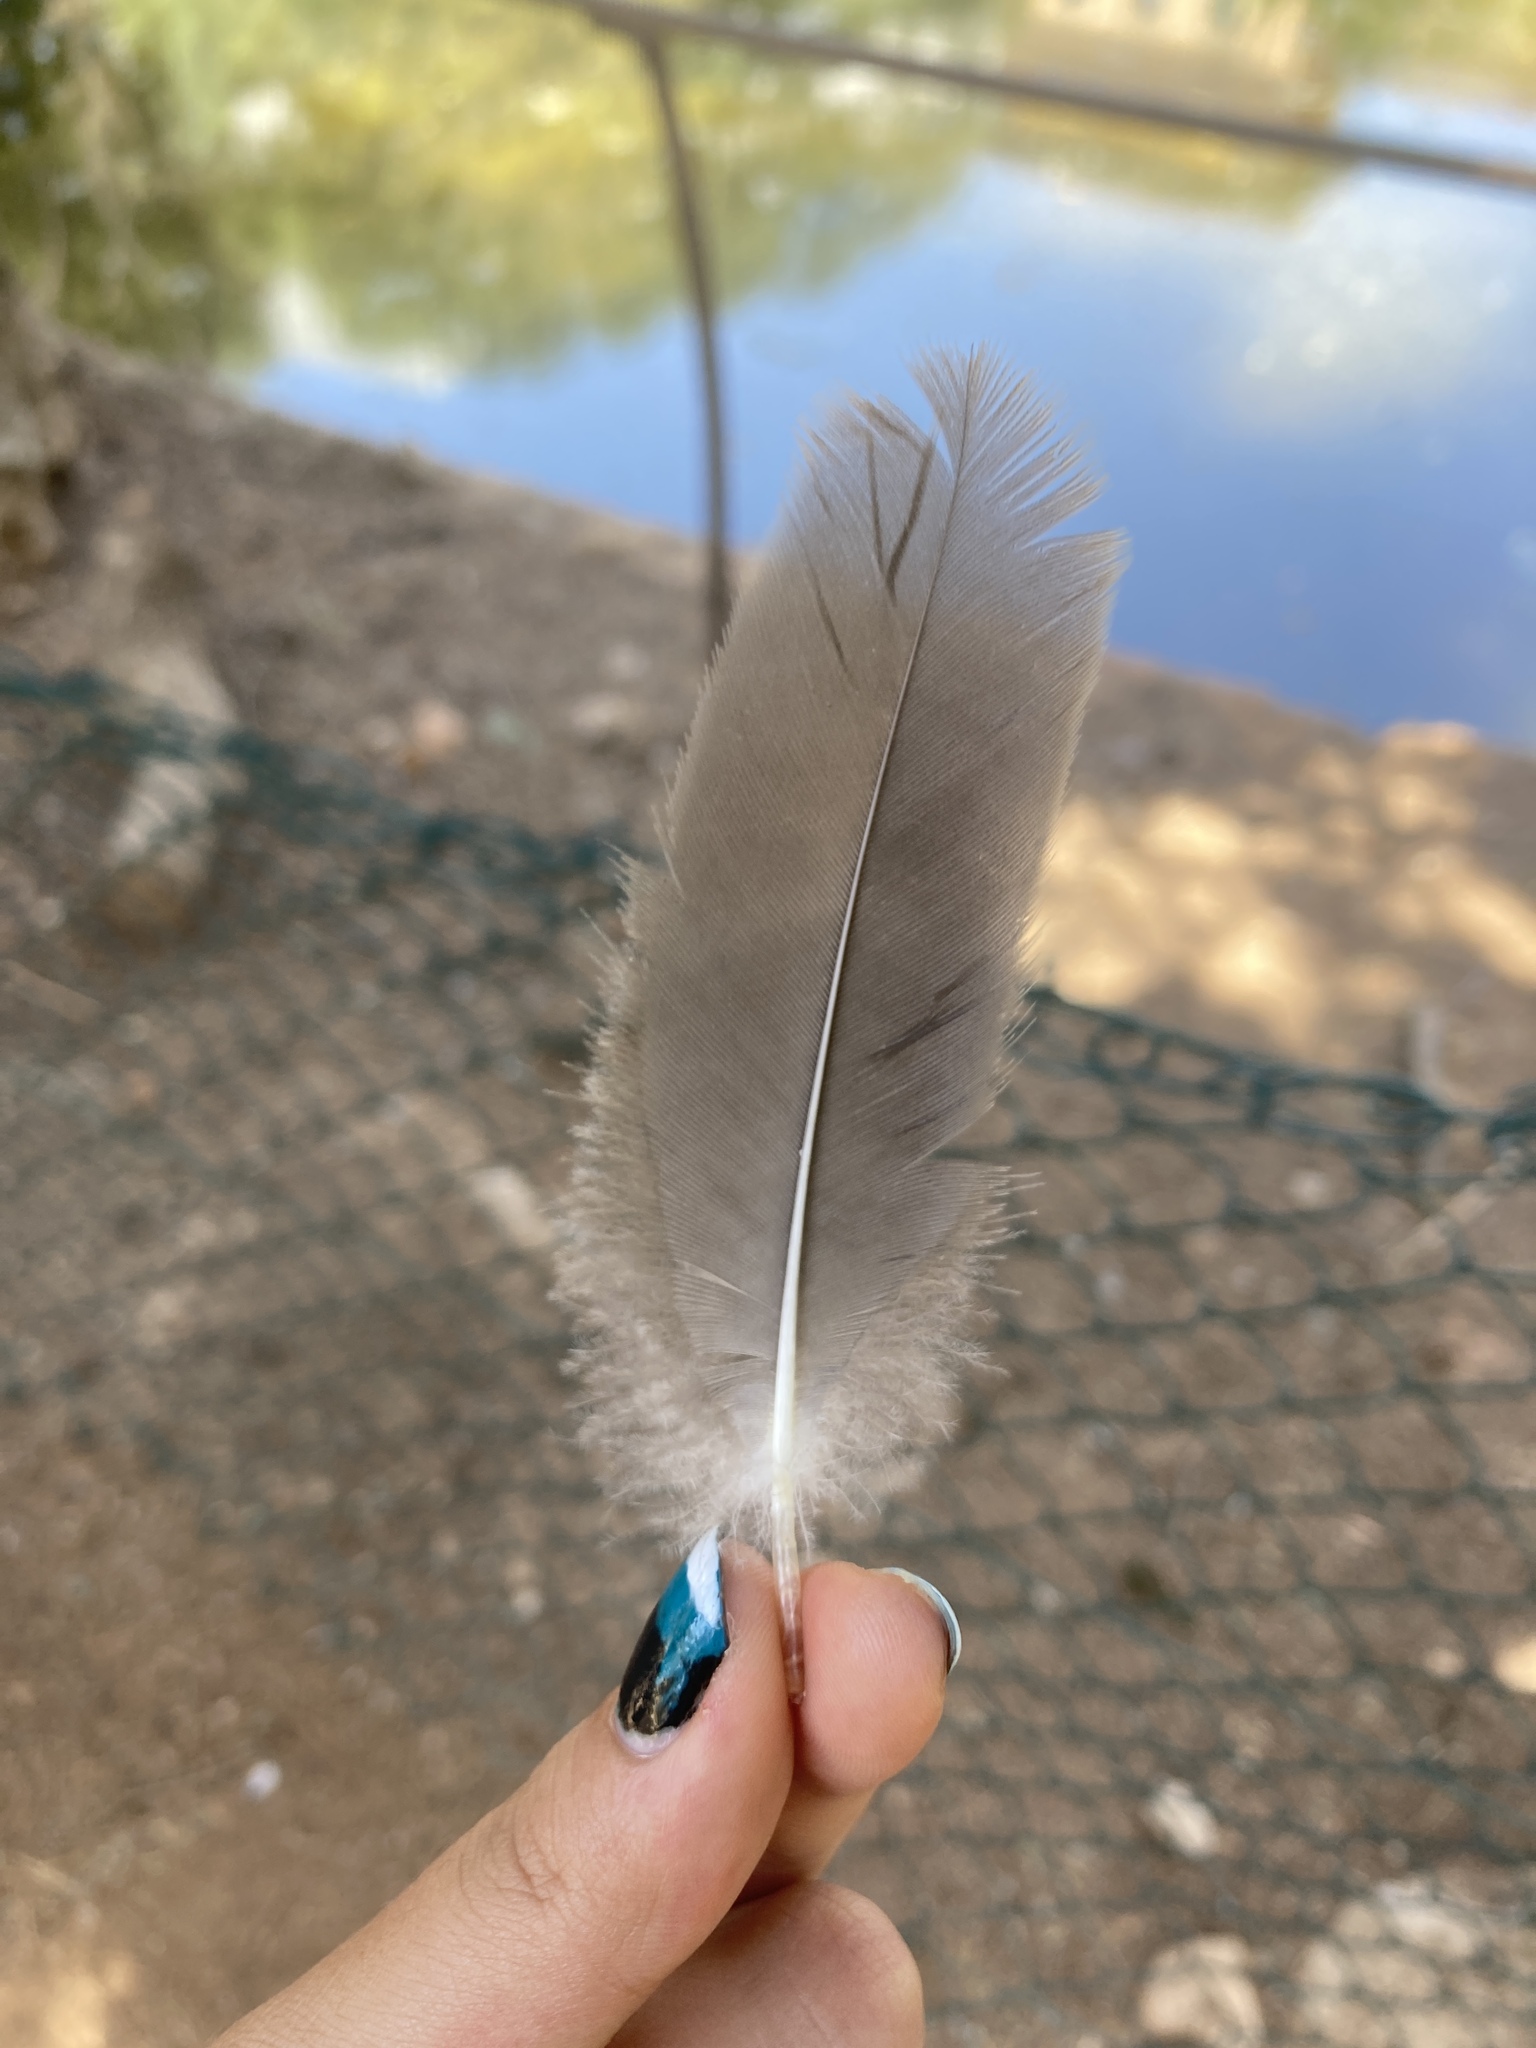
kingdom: Animalia
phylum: Chordata
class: Aves
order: Anseriformes
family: Anatidae
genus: Anser
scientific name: Anser anser
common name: Greylag goose
